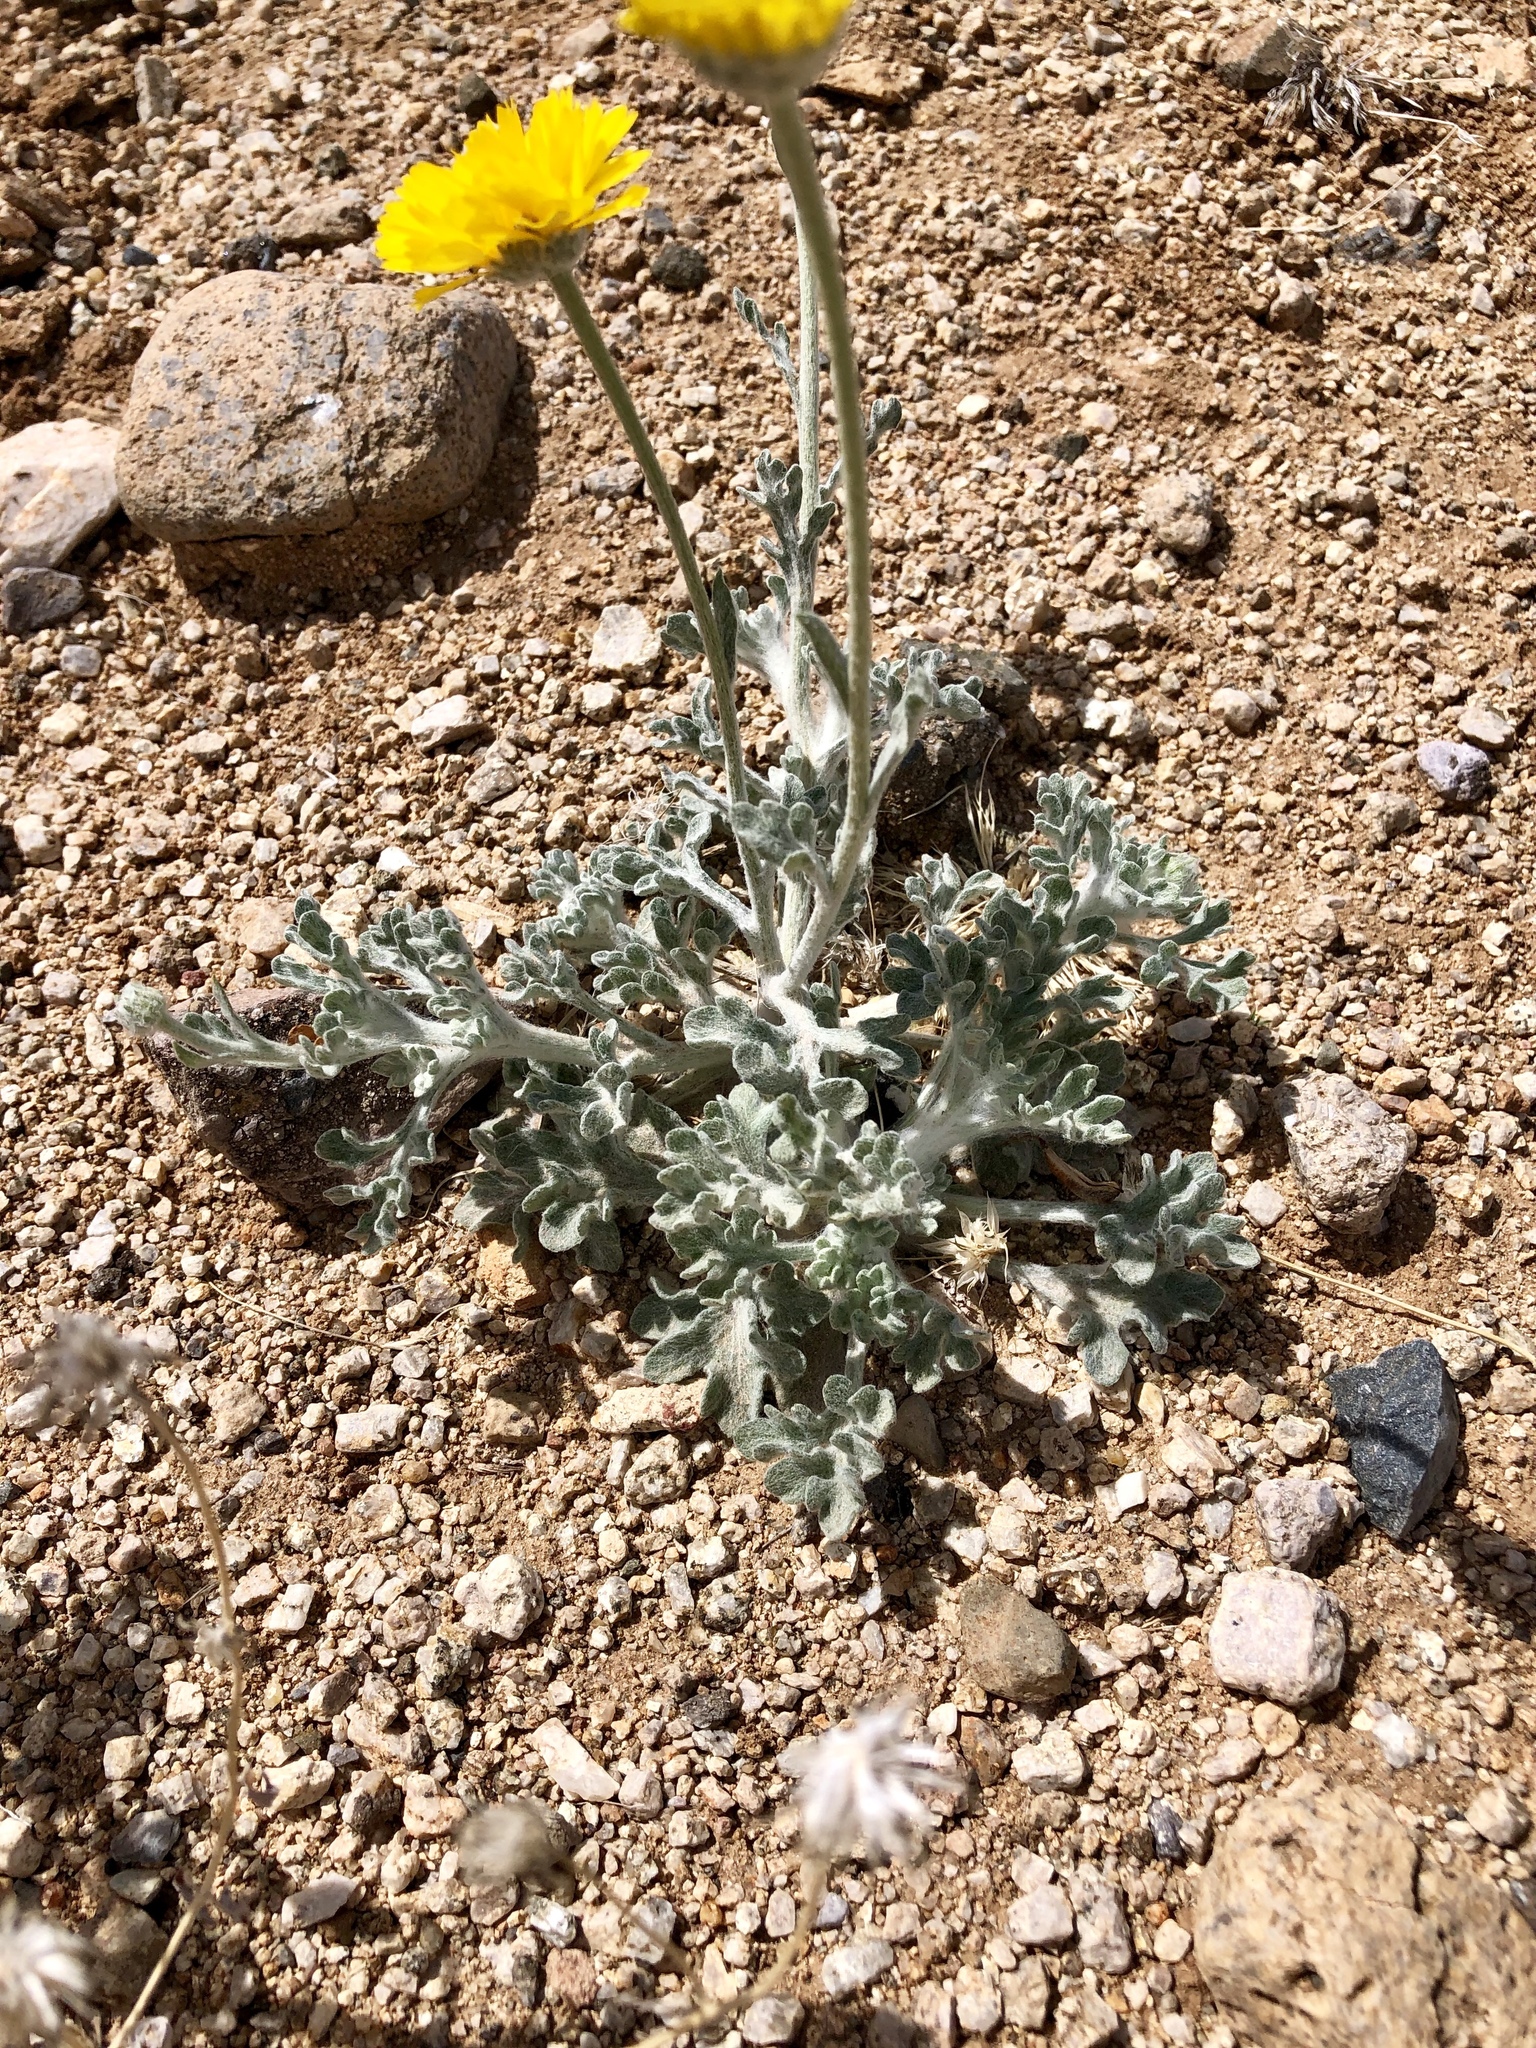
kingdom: Plantae
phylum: Tracheophyta
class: Magnoliopsida
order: Asterales
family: Asteraceae
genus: Baileya
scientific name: Baileya multiradiata
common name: Desert-marigold
